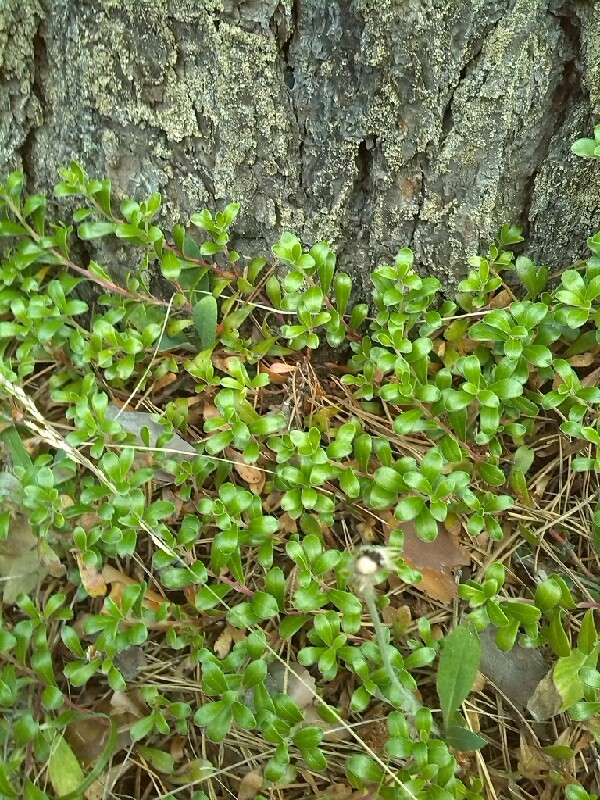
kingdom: Plantae
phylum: Tracheophyta
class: Magnoliopsida
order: Ericales
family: Ericaceae
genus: Arctostaphylos
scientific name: Arctostaphylos uva-ursi
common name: Bearberry
